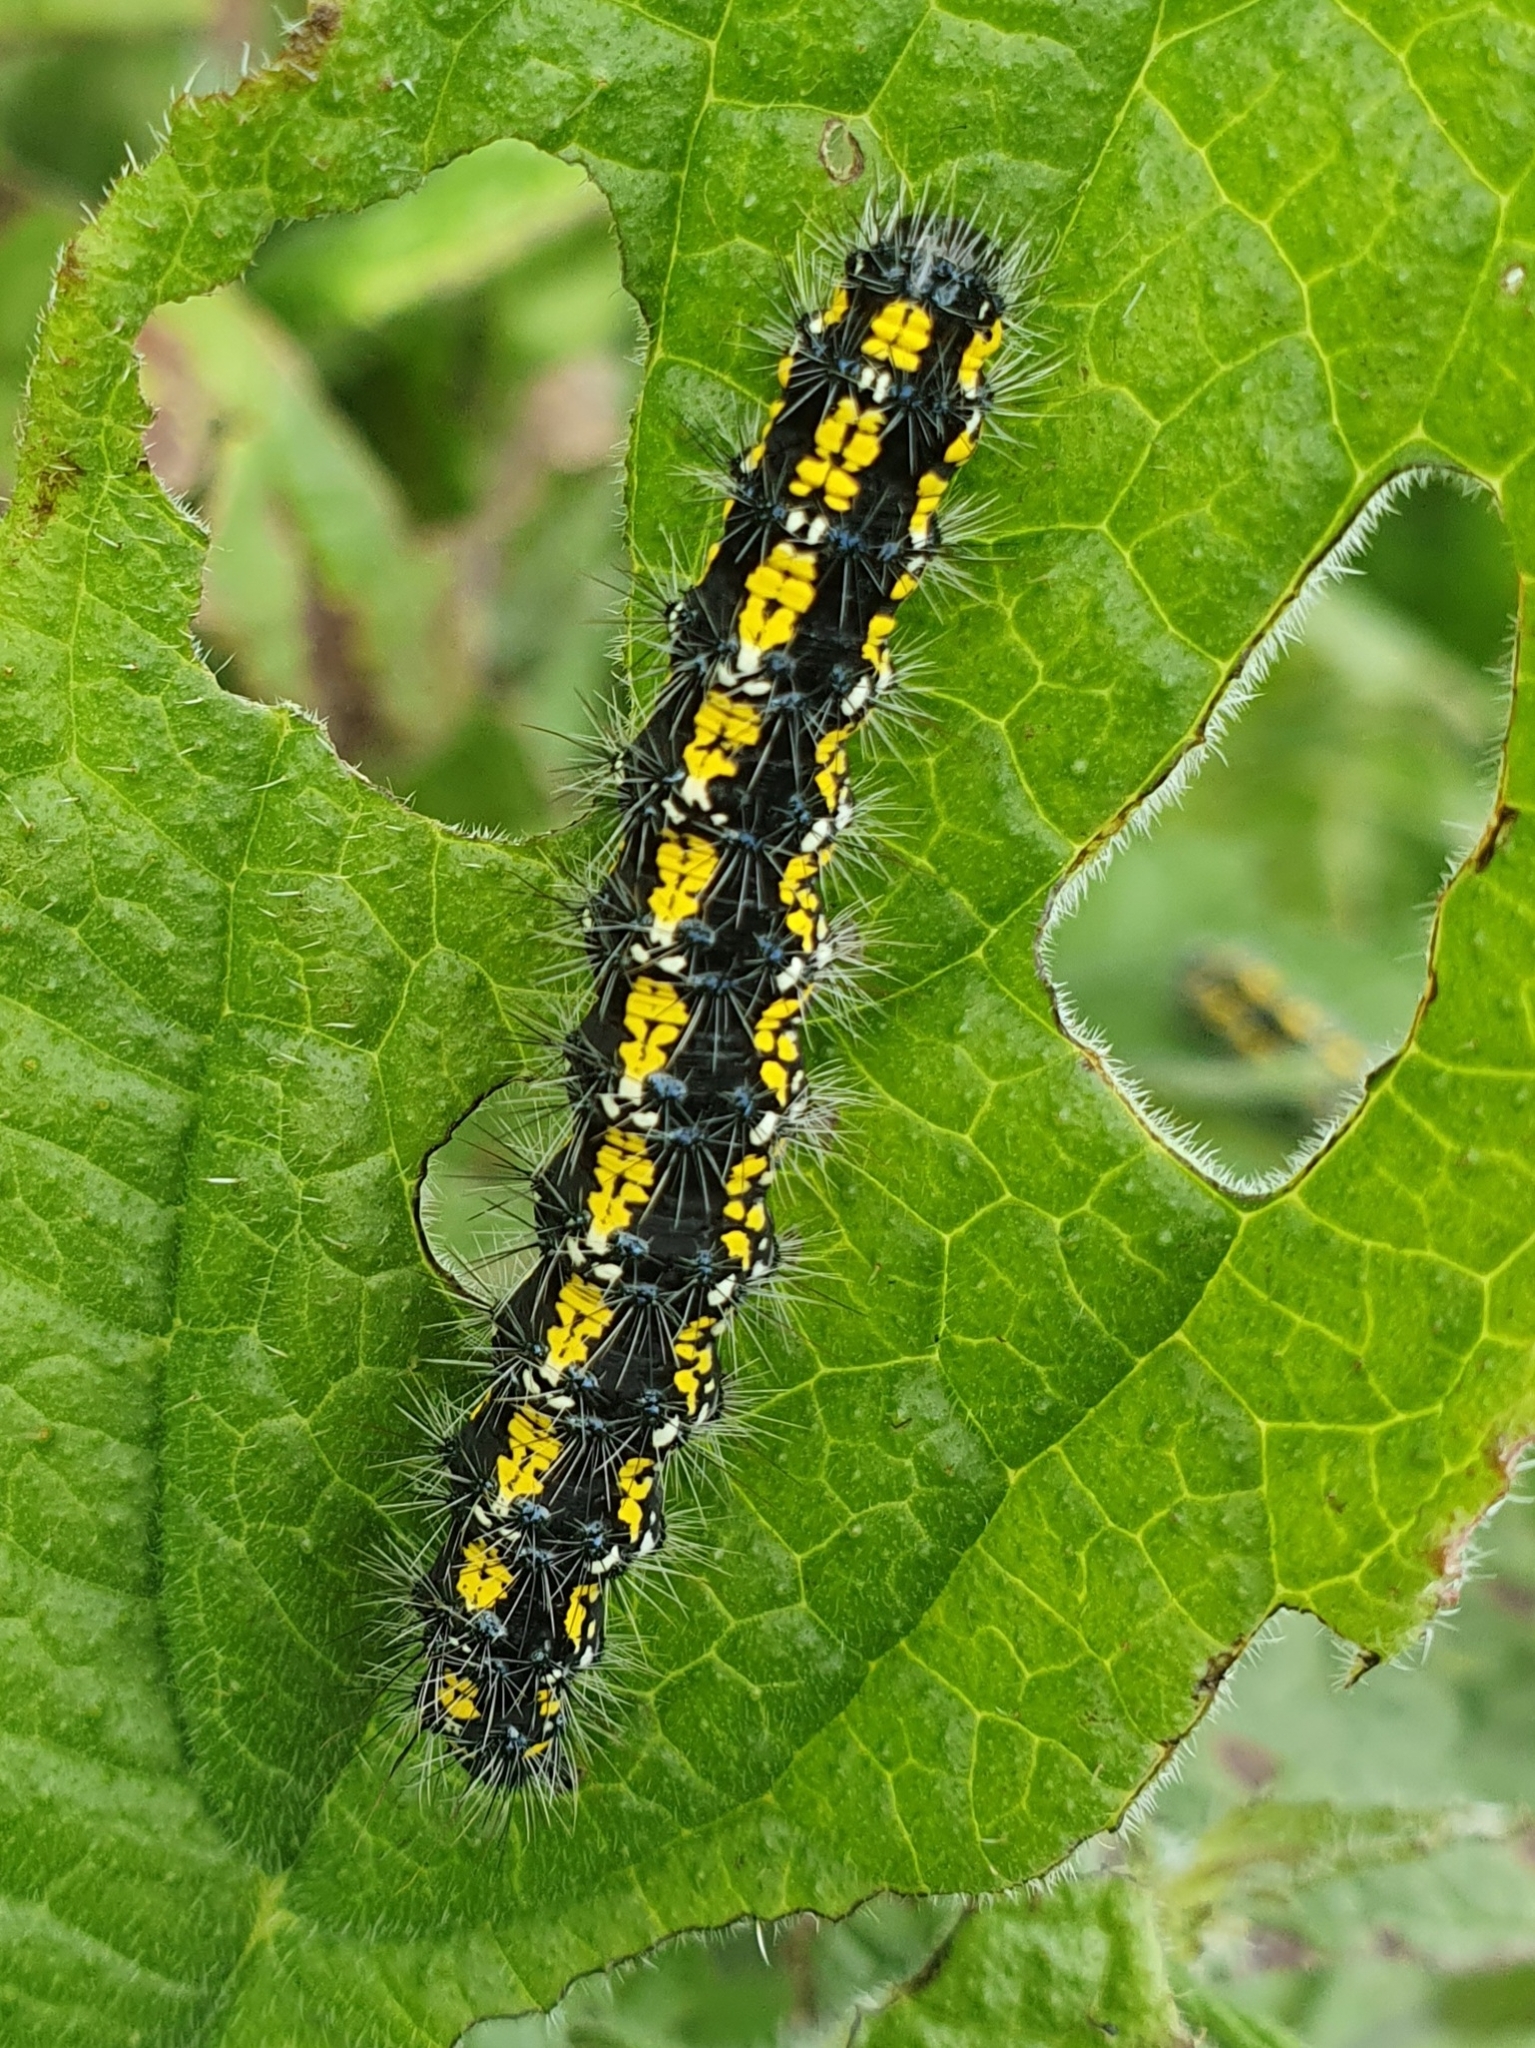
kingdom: Animalia
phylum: Arthropoda
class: Insecta
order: Lepidoptera
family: Erebidae
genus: Callimorpha
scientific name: Callimorpha dominula
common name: Scarlet tiger
